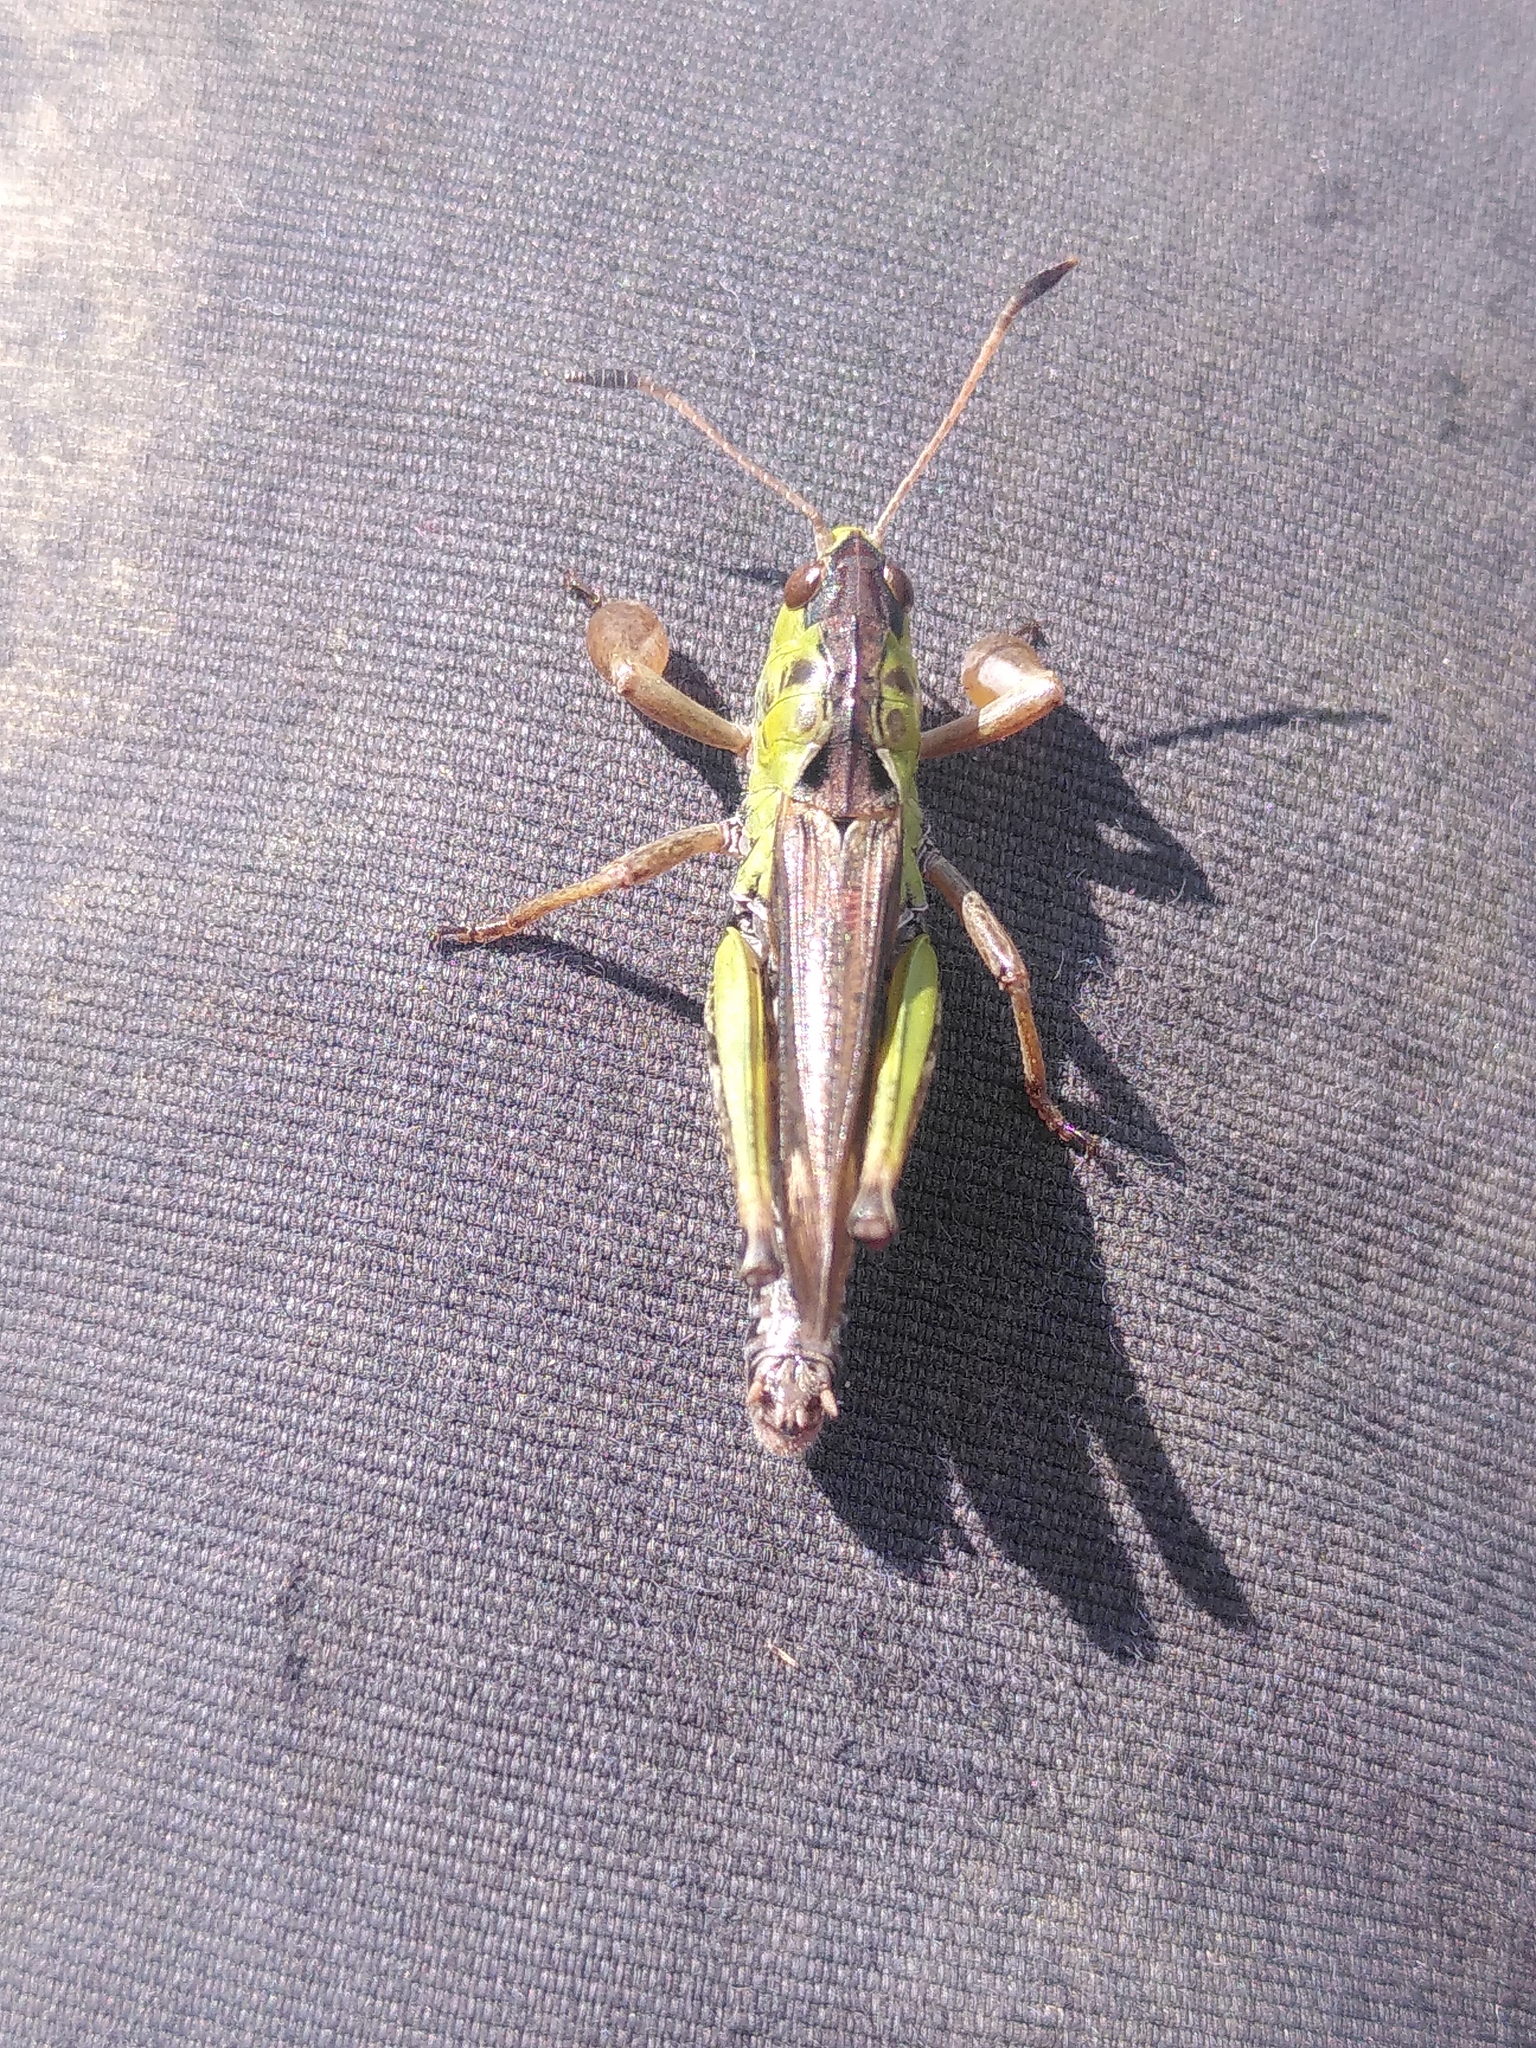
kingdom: Animalia
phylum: Arthropoda
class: Insecta
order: Orthoptera
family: Acrididae
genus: Gomphocerus
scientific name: Gomphocerus sibiricus
